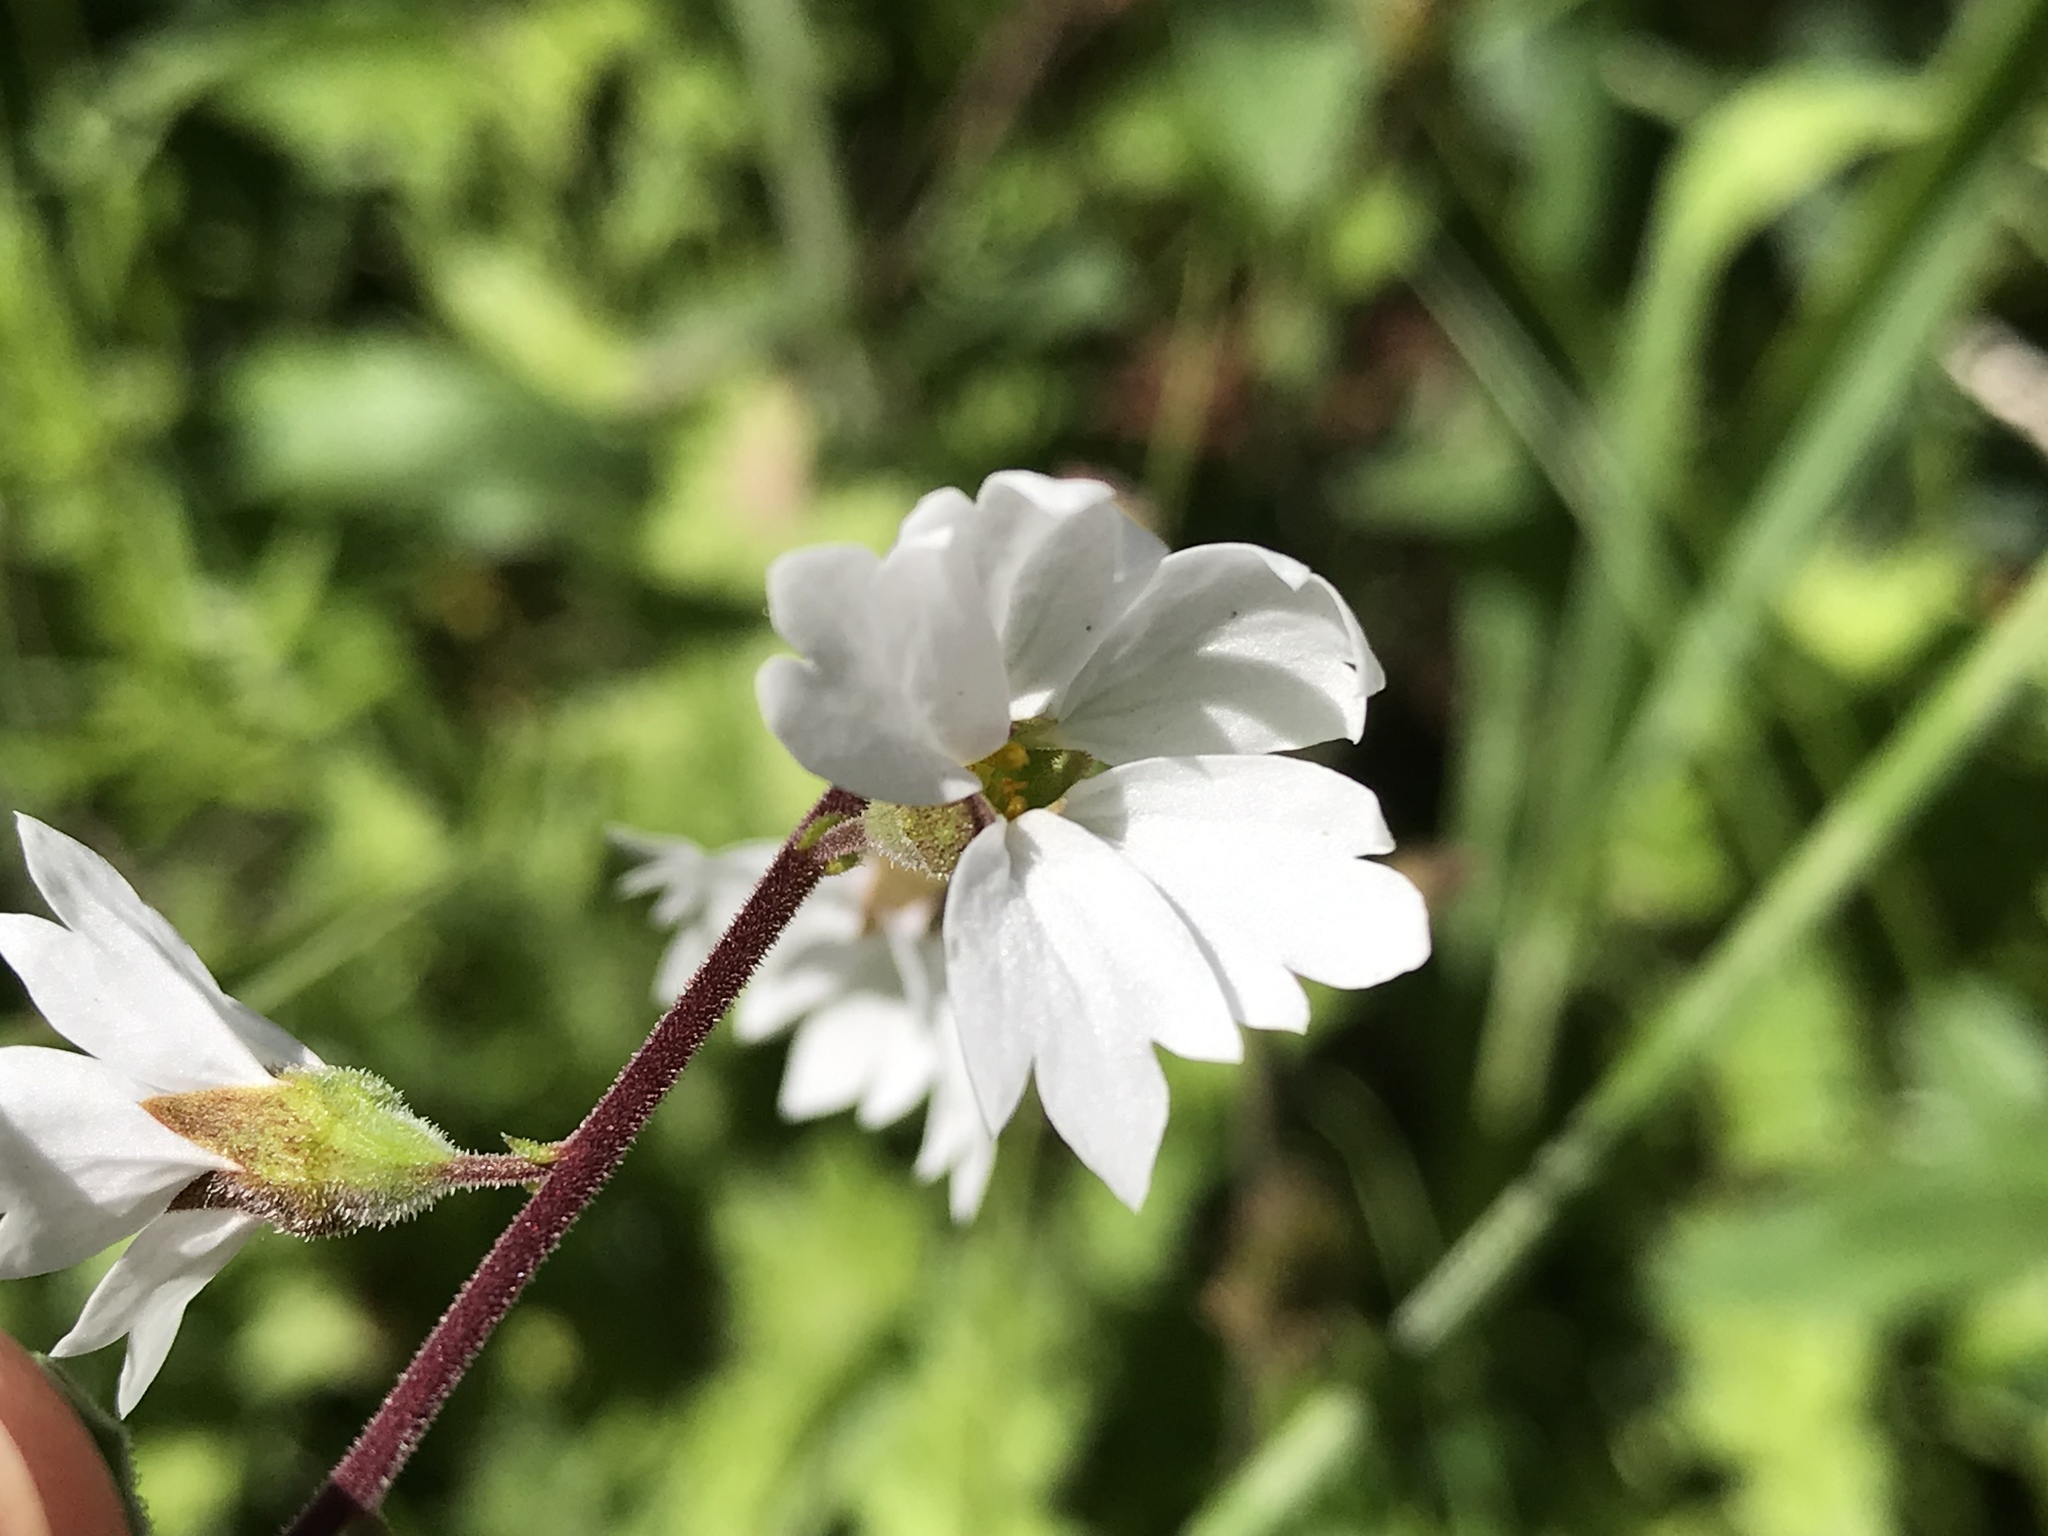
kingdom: Plantae
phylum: Tracheophyta
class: Magnoliopsida
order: Saxifragales
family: Saxifragaceae
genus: Lithophragma
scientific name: Lithophragma affine
